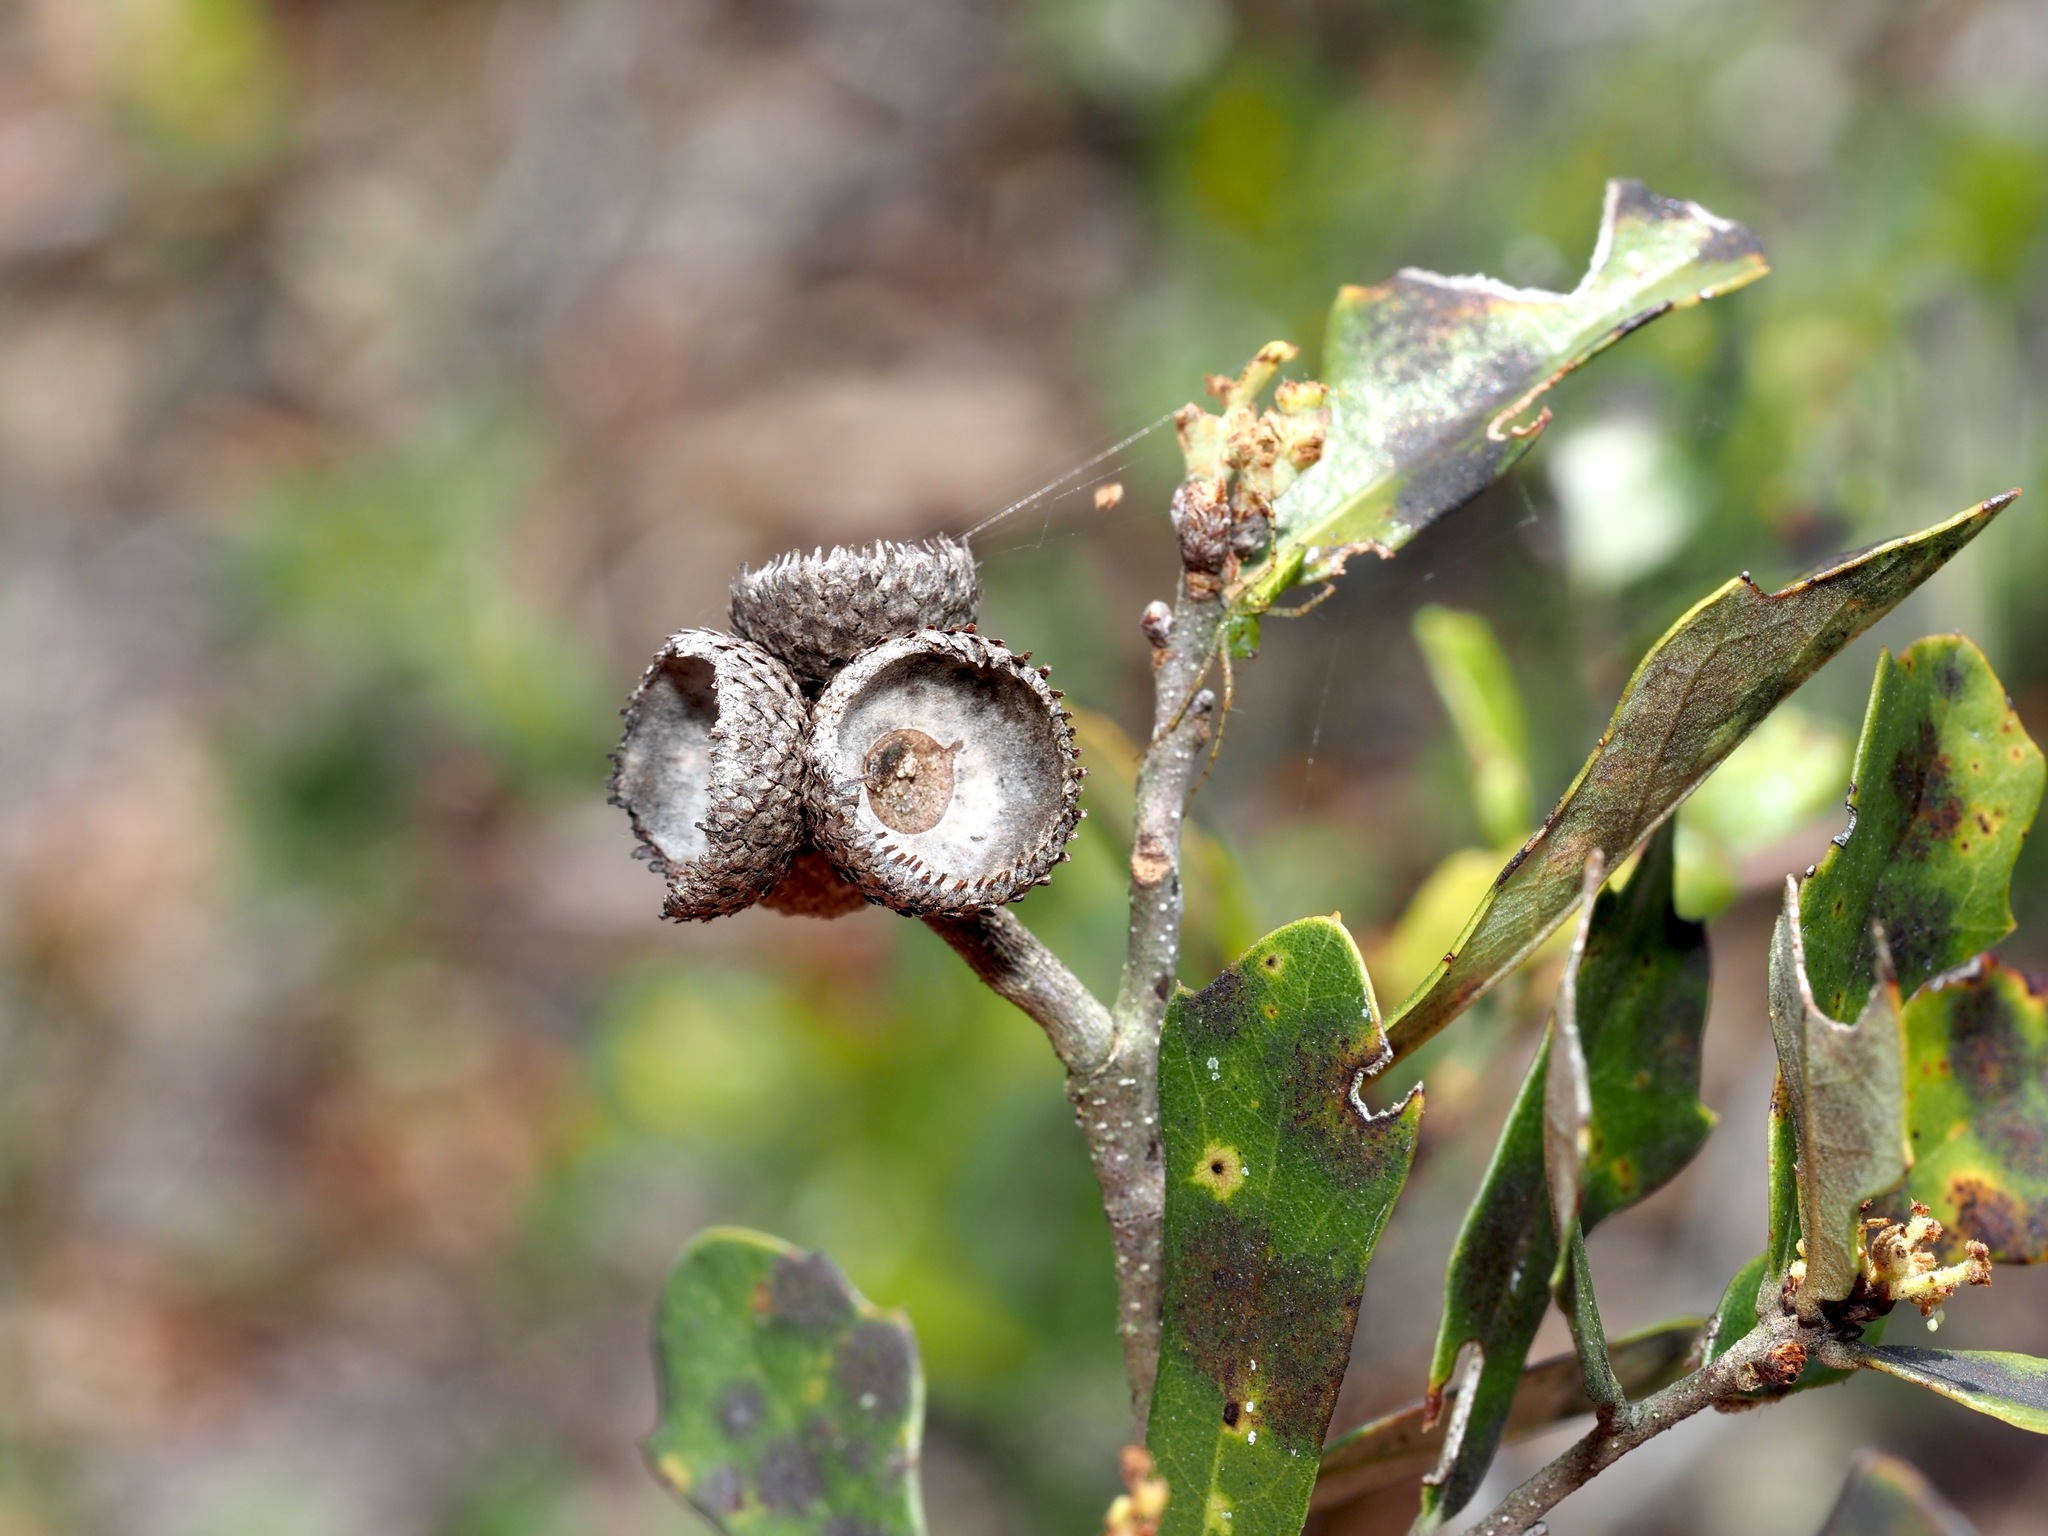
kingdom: Plantae
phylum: Tracheophyta
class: Magnoliopsida
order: Fagales
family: Fagaceae
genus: Quercus
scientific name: Quercus minima
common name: Dwarf live oak
